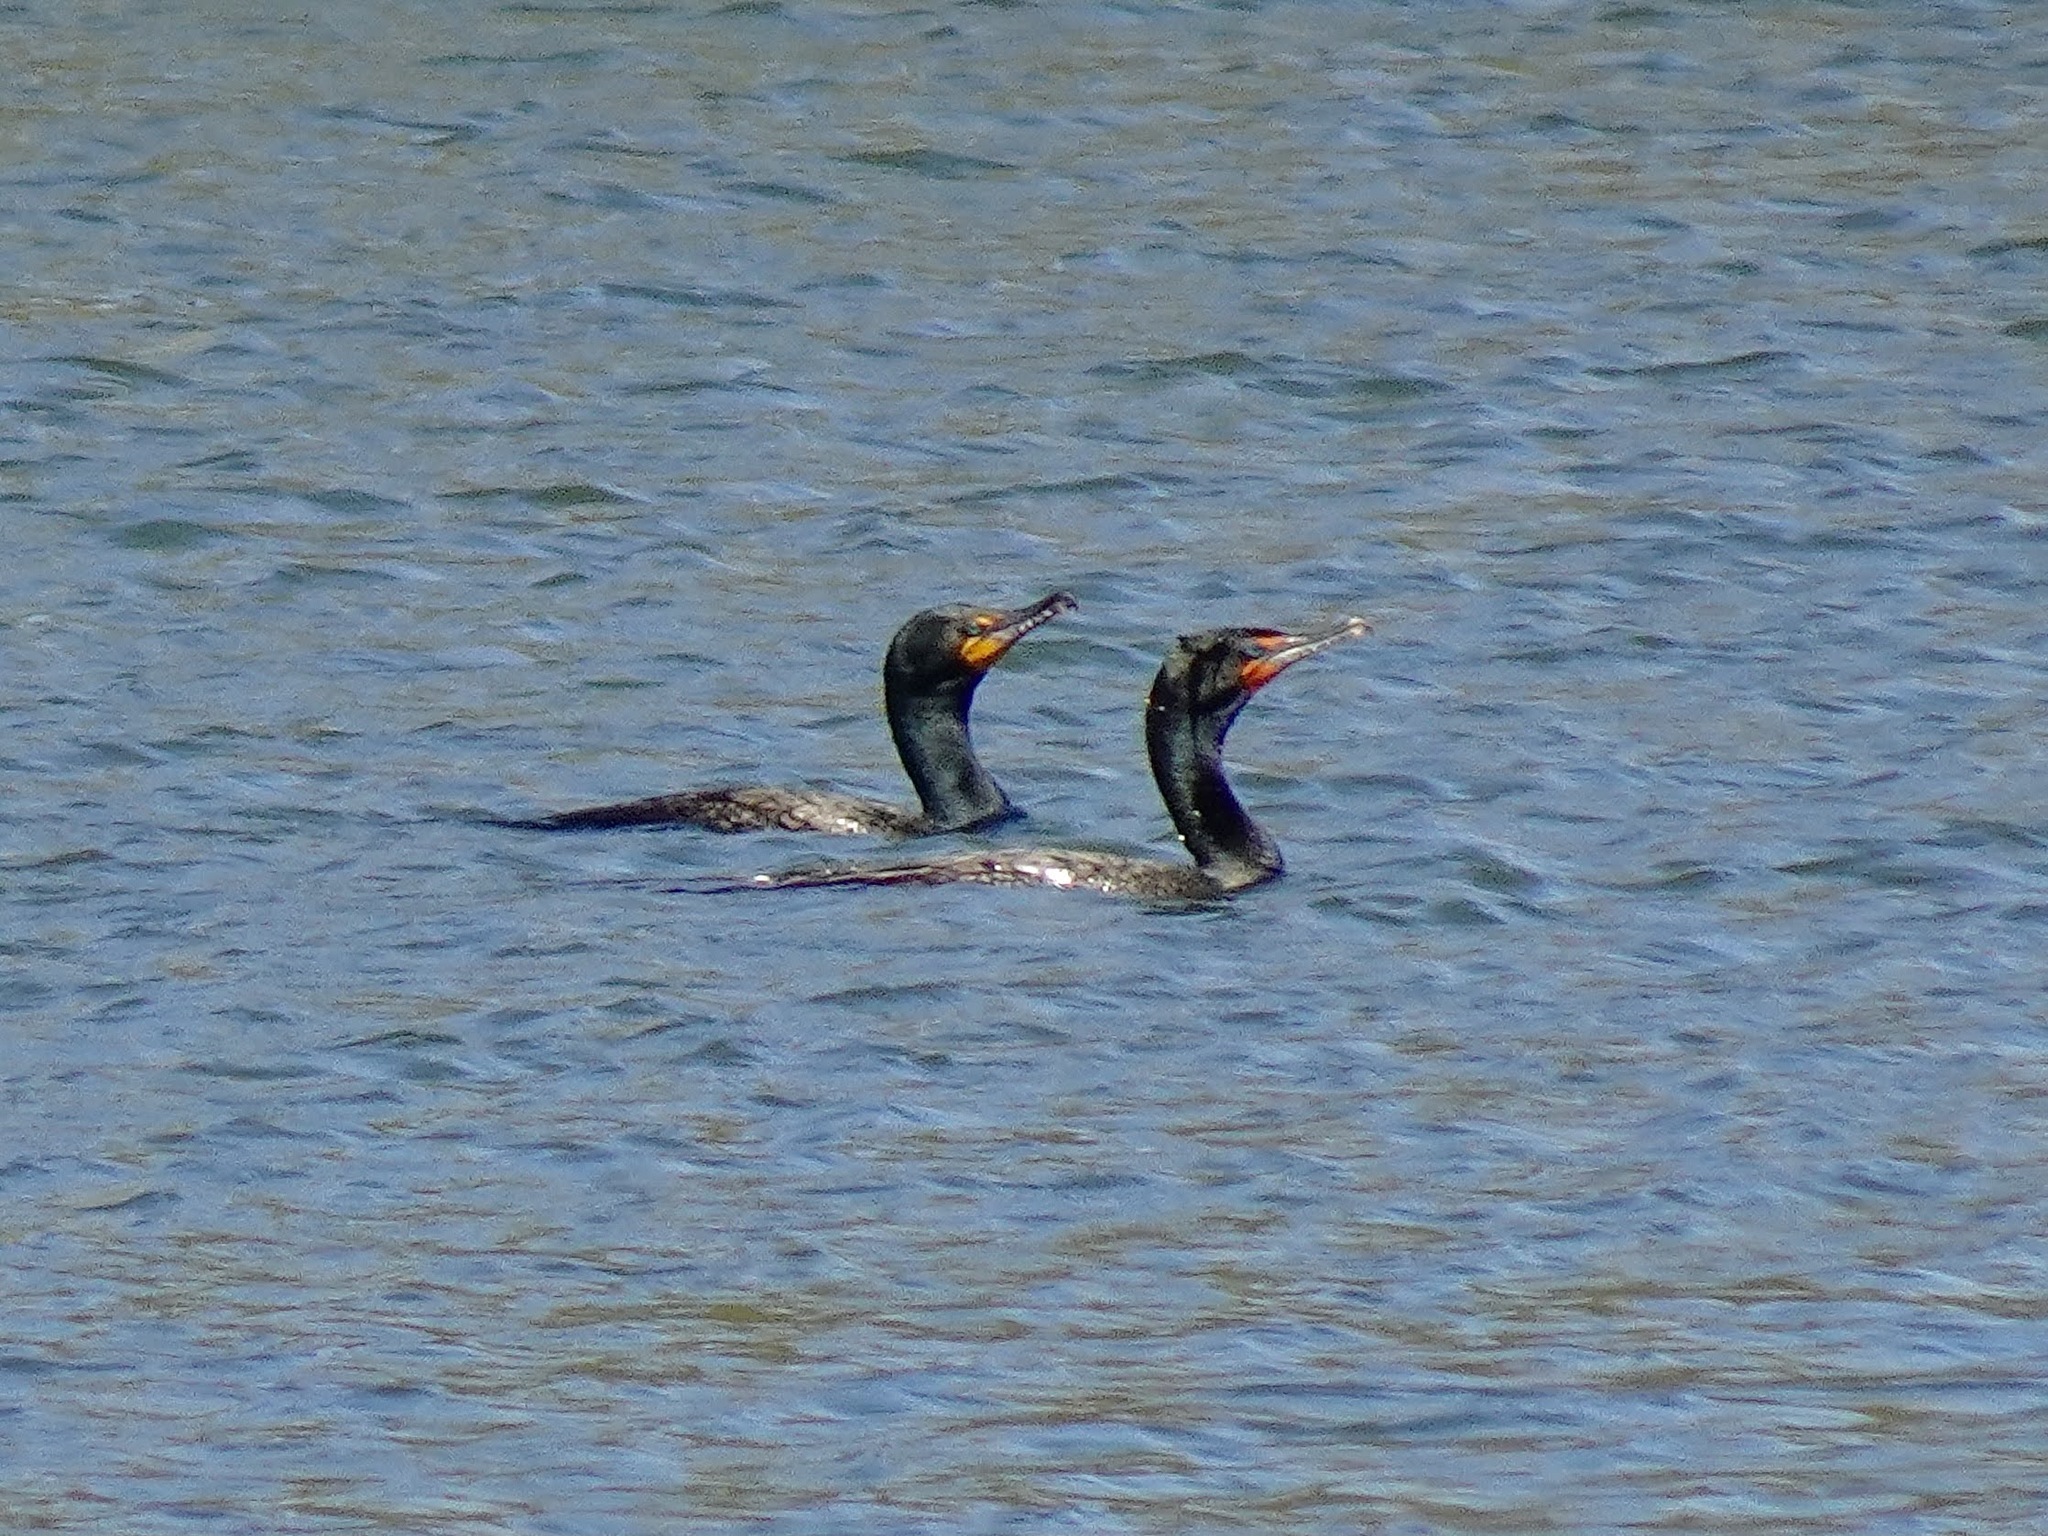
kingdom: Animalia
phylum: Chordata
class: Aves
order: Suliformes
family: Phalacrocoracidae
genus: Phalacrocorax
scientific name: Phalacrocorax auritus
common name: Double-crested cormorant
